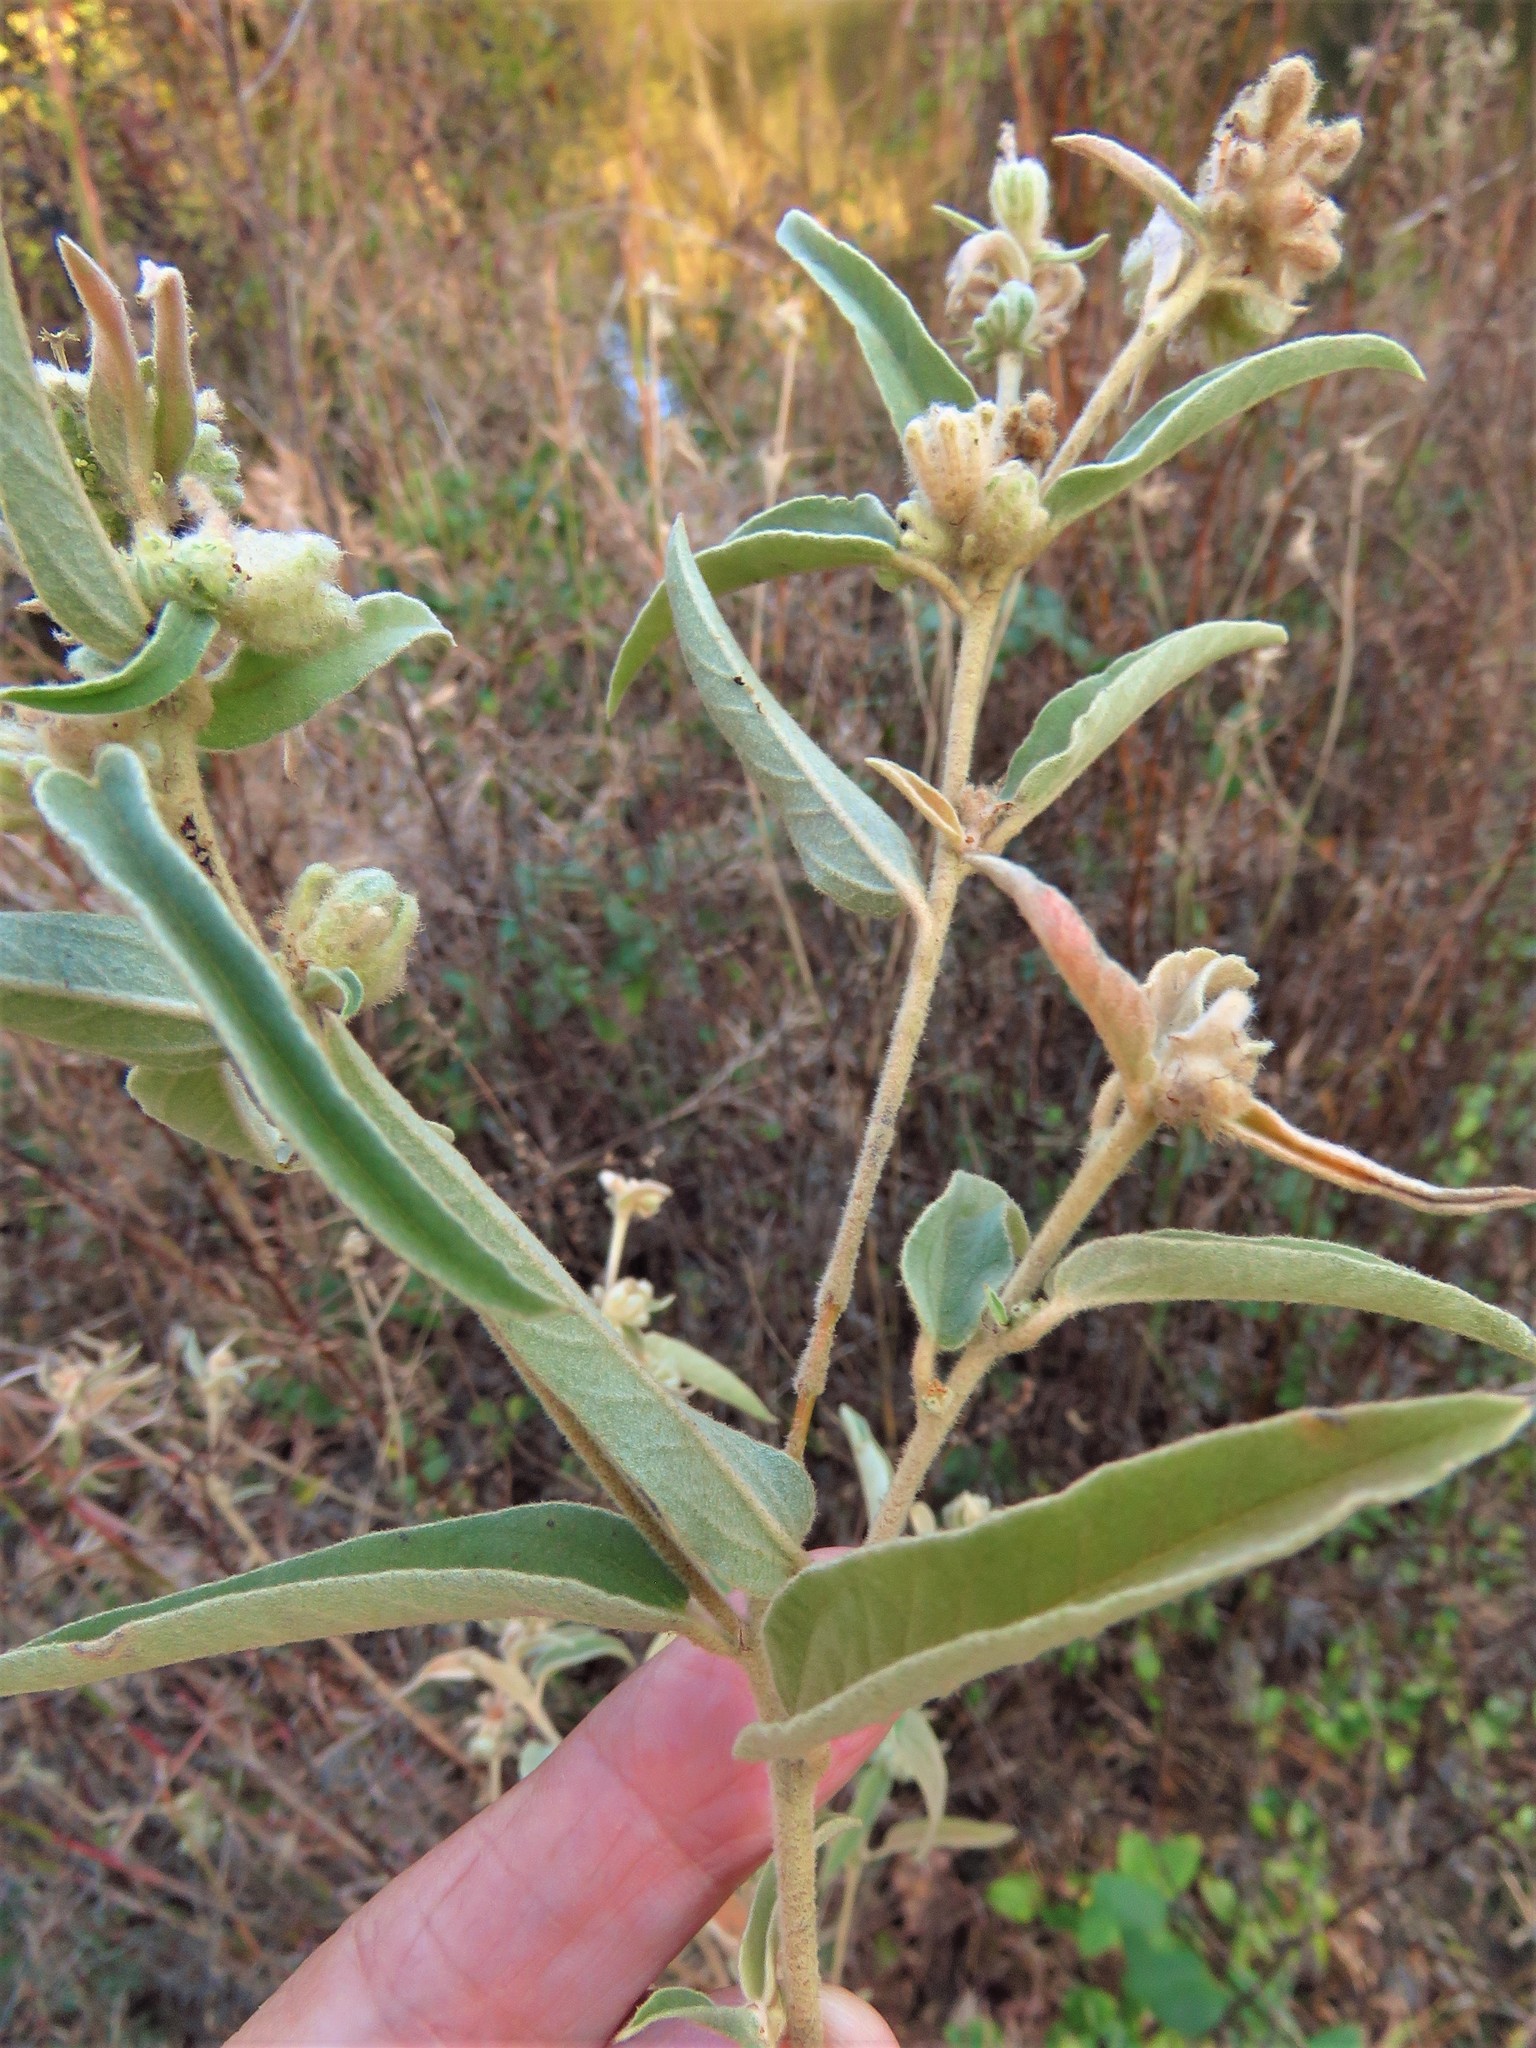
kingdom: Plantae
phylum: Tracheophyta
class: Magnoliopsida
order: Malpighiales
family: Euphorbiaceae
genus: Croton
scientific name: Croton lindheimeri
